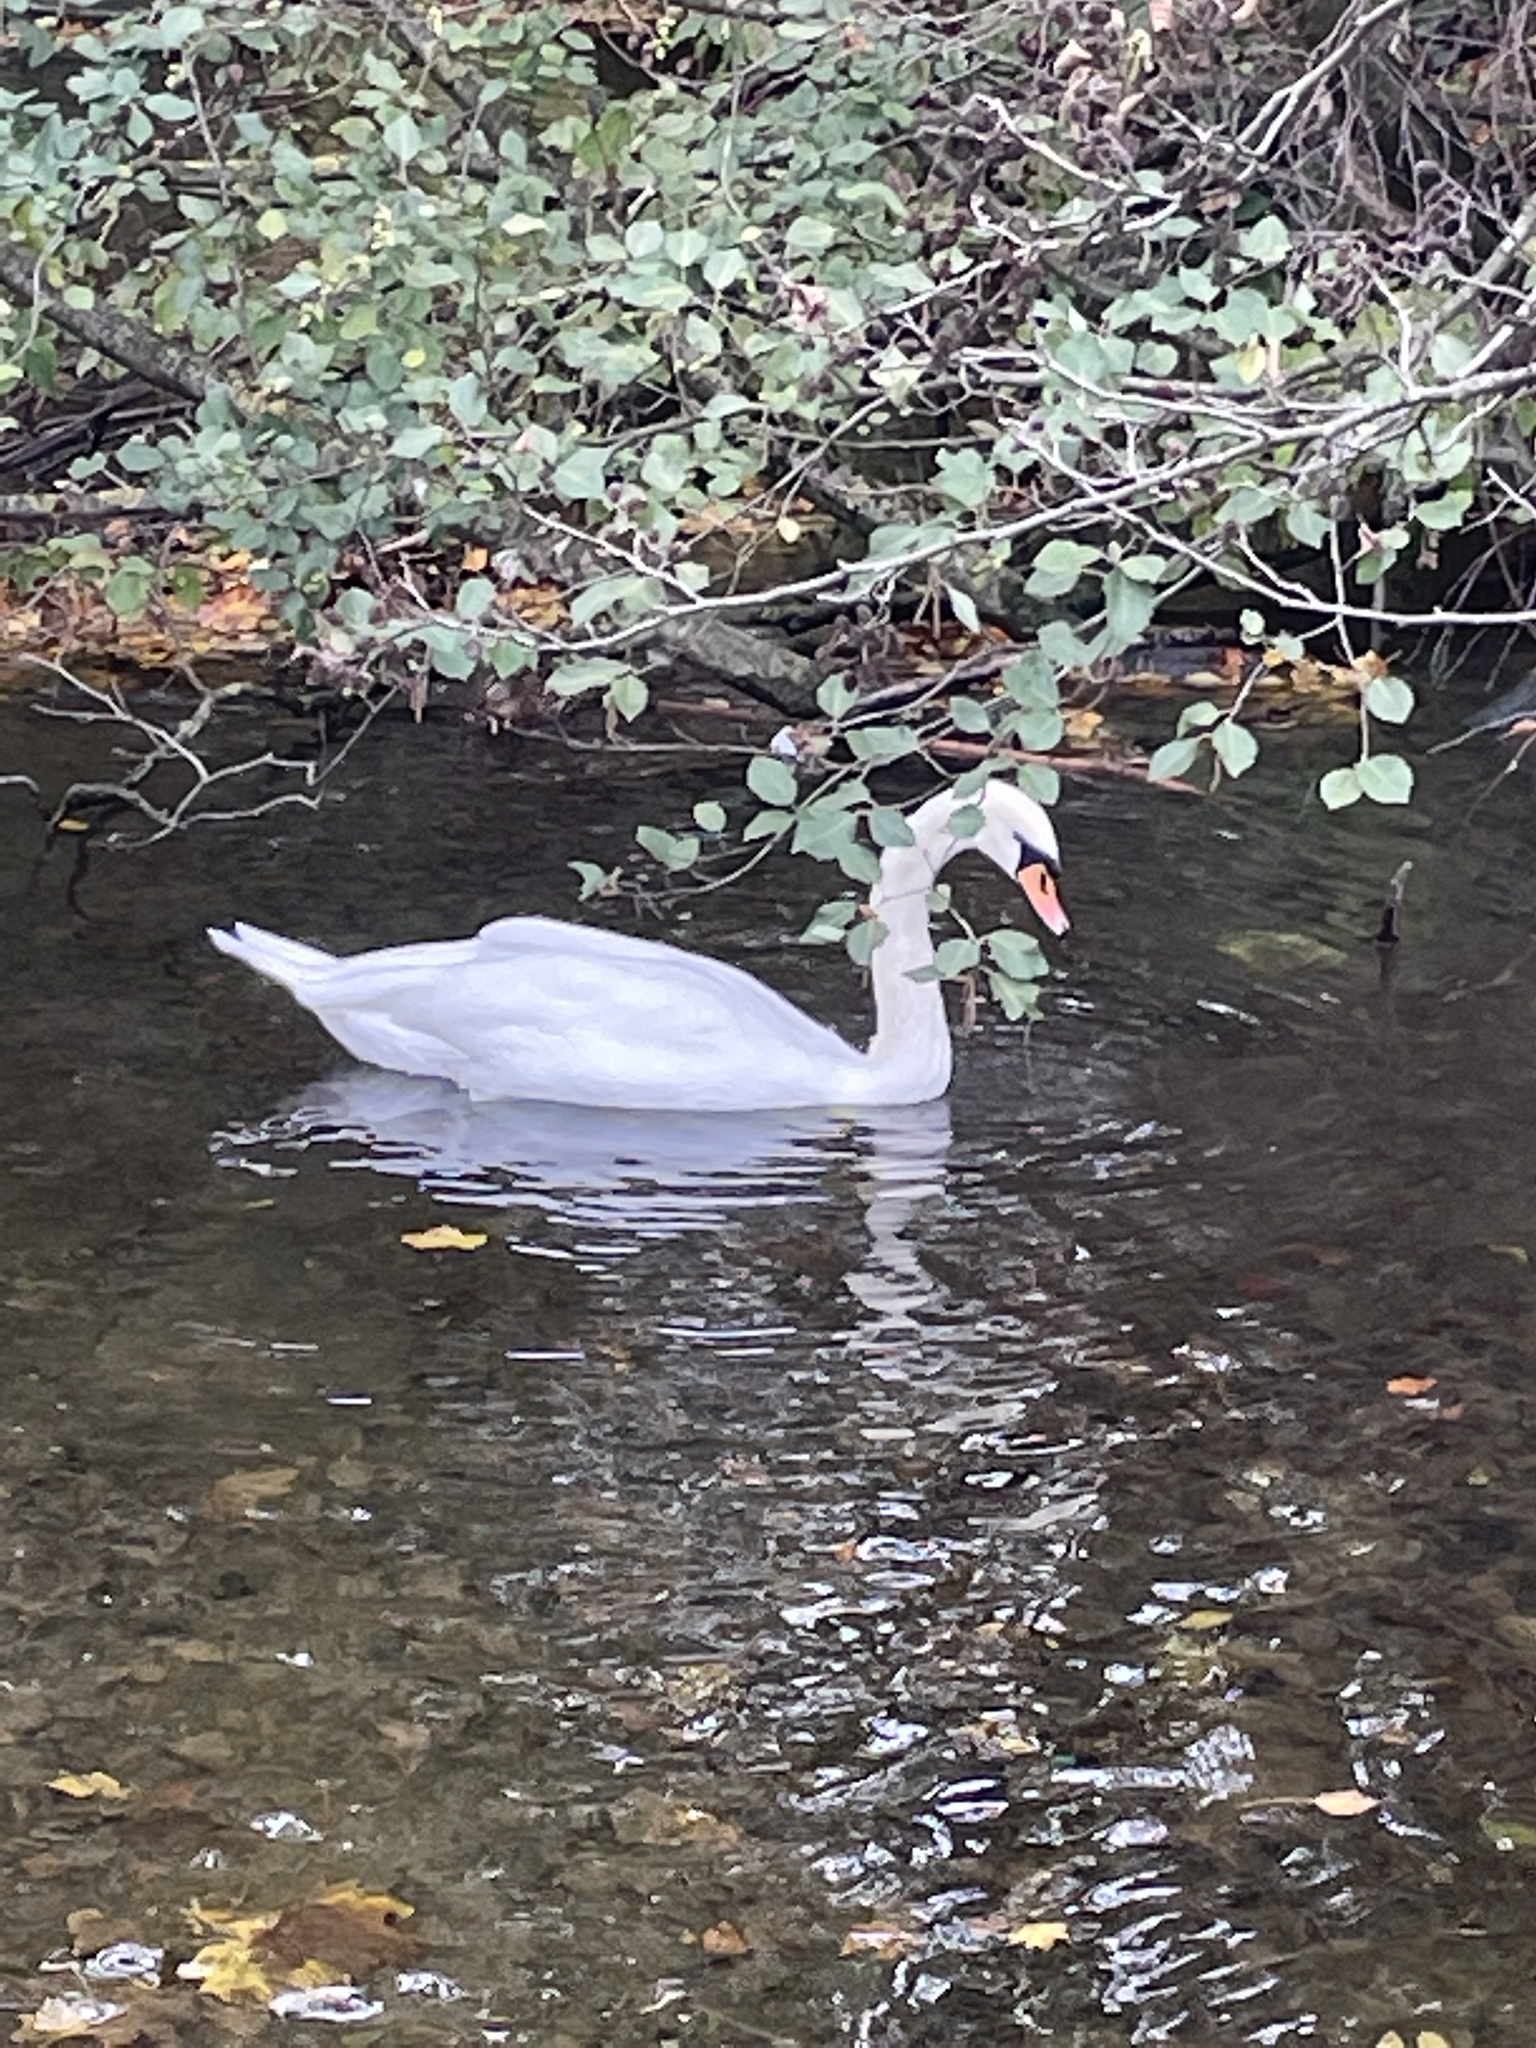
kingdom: Animalia
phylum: Chordata
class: Aves
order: Anseriformes
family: Anatidae
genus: Cygnus
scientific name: Cygnus olor
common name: Mute swan
